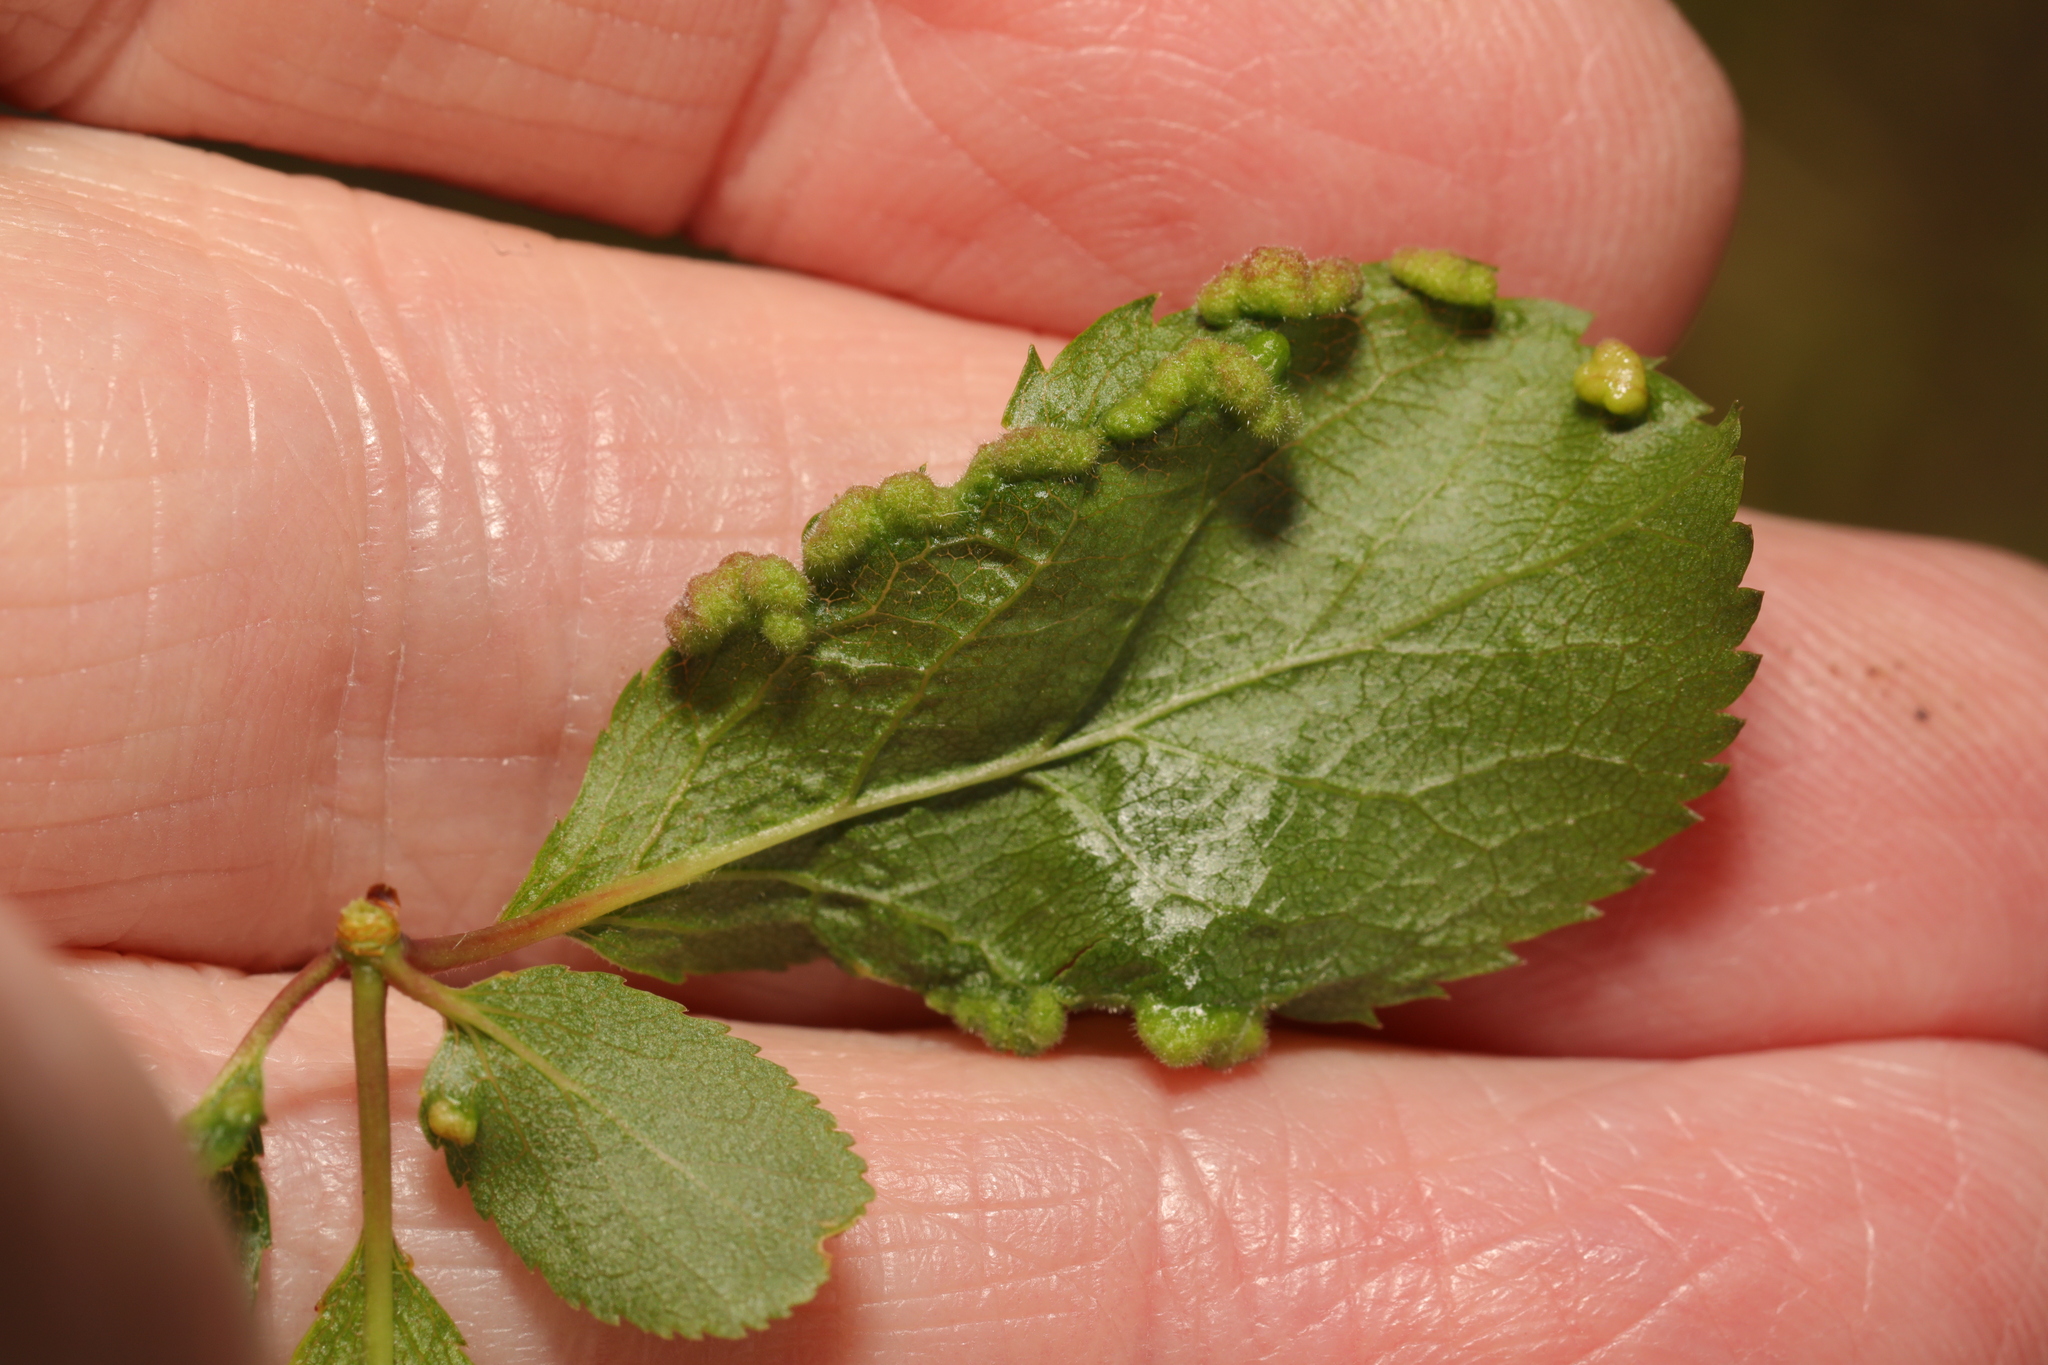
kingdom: Animalia
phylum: Arthropoda
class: Arachnida
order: Trombidiformes
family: Eriophyidae
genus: Eriophyes
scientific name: Eriophyes similis
